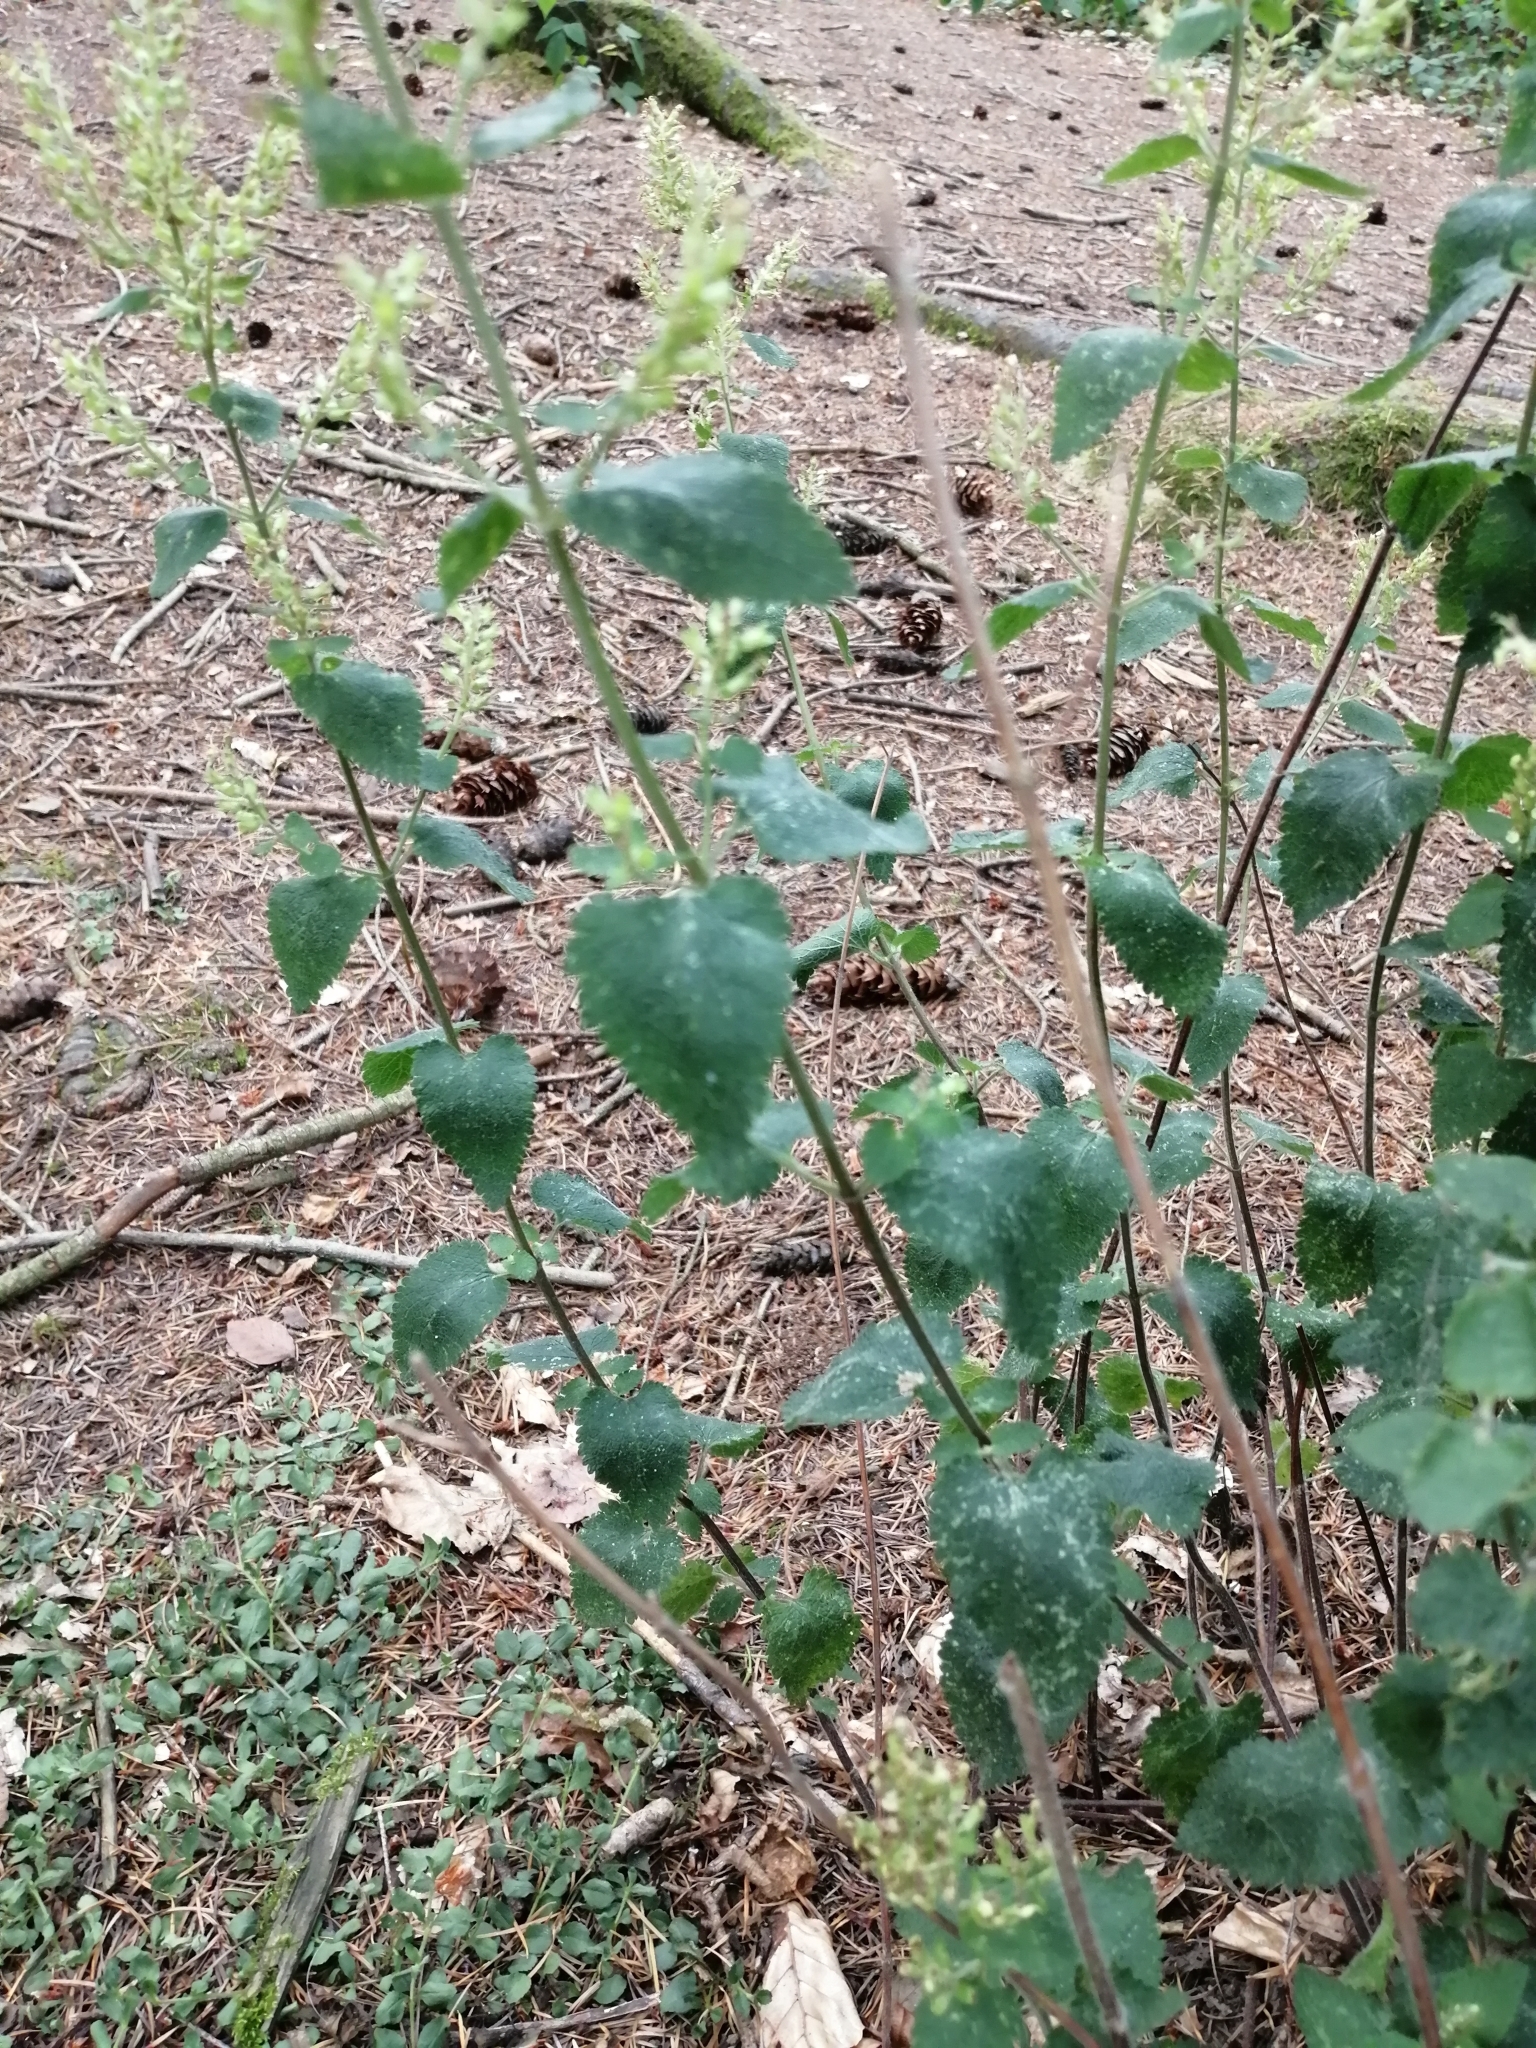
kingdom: Plantae
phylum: Tracheophyta
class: Magnoliopsida
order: Lamiales
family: Lamiaceae
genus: Teucrium
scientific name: Teucrium scorodonia
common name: Woodland germander
